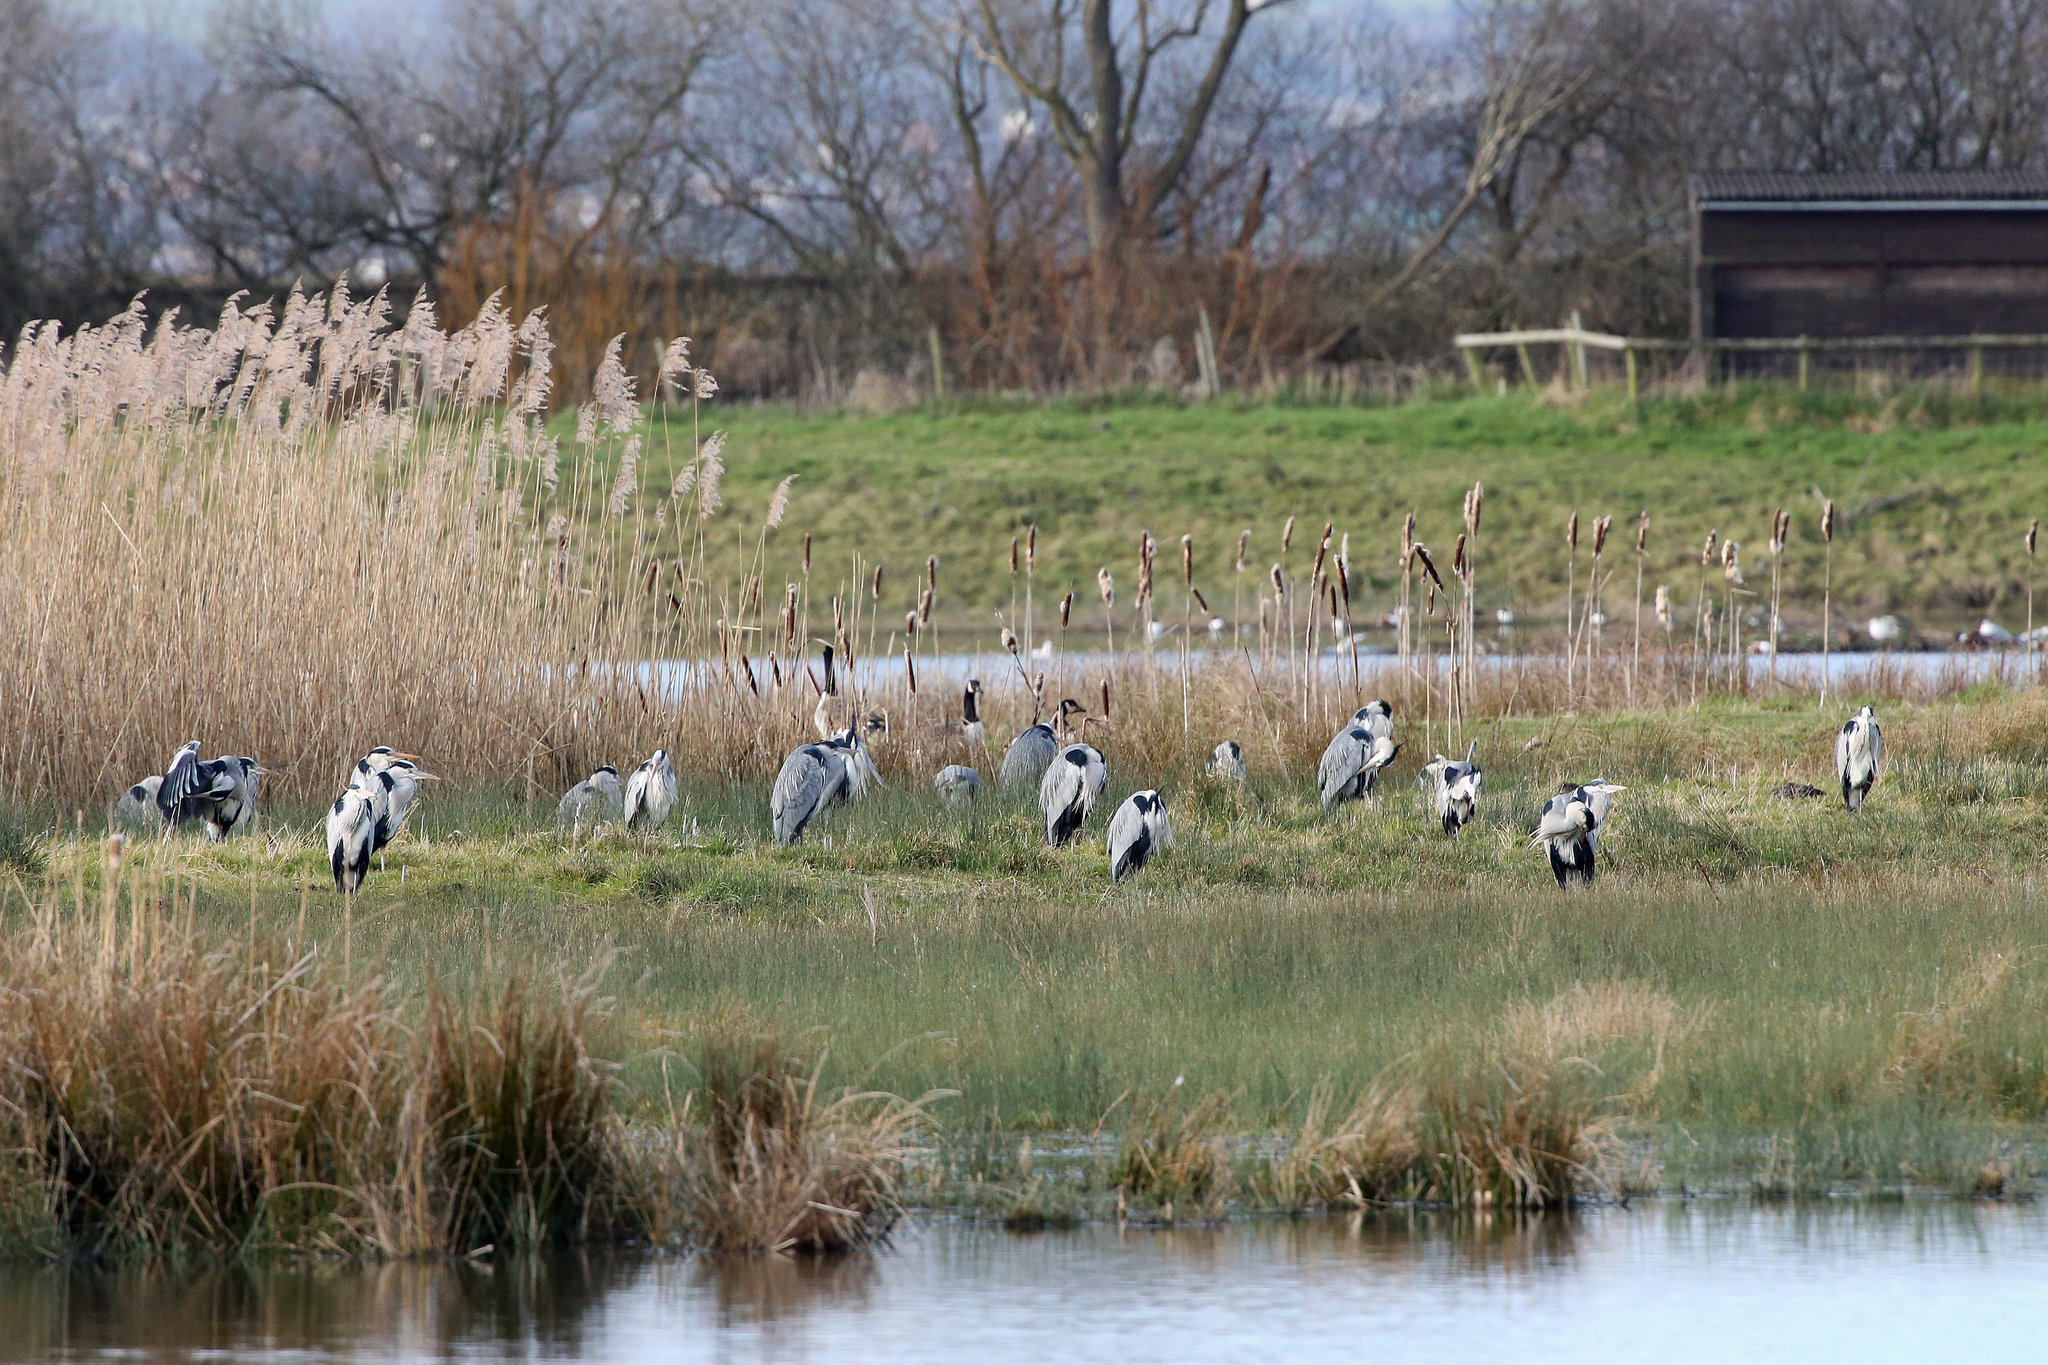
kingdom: Animalia
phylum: Chordata
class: Aves
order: Pelecaniformes
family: Ardeidae
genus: Ardea
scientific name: Ardea cinerea
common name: Grey heron
